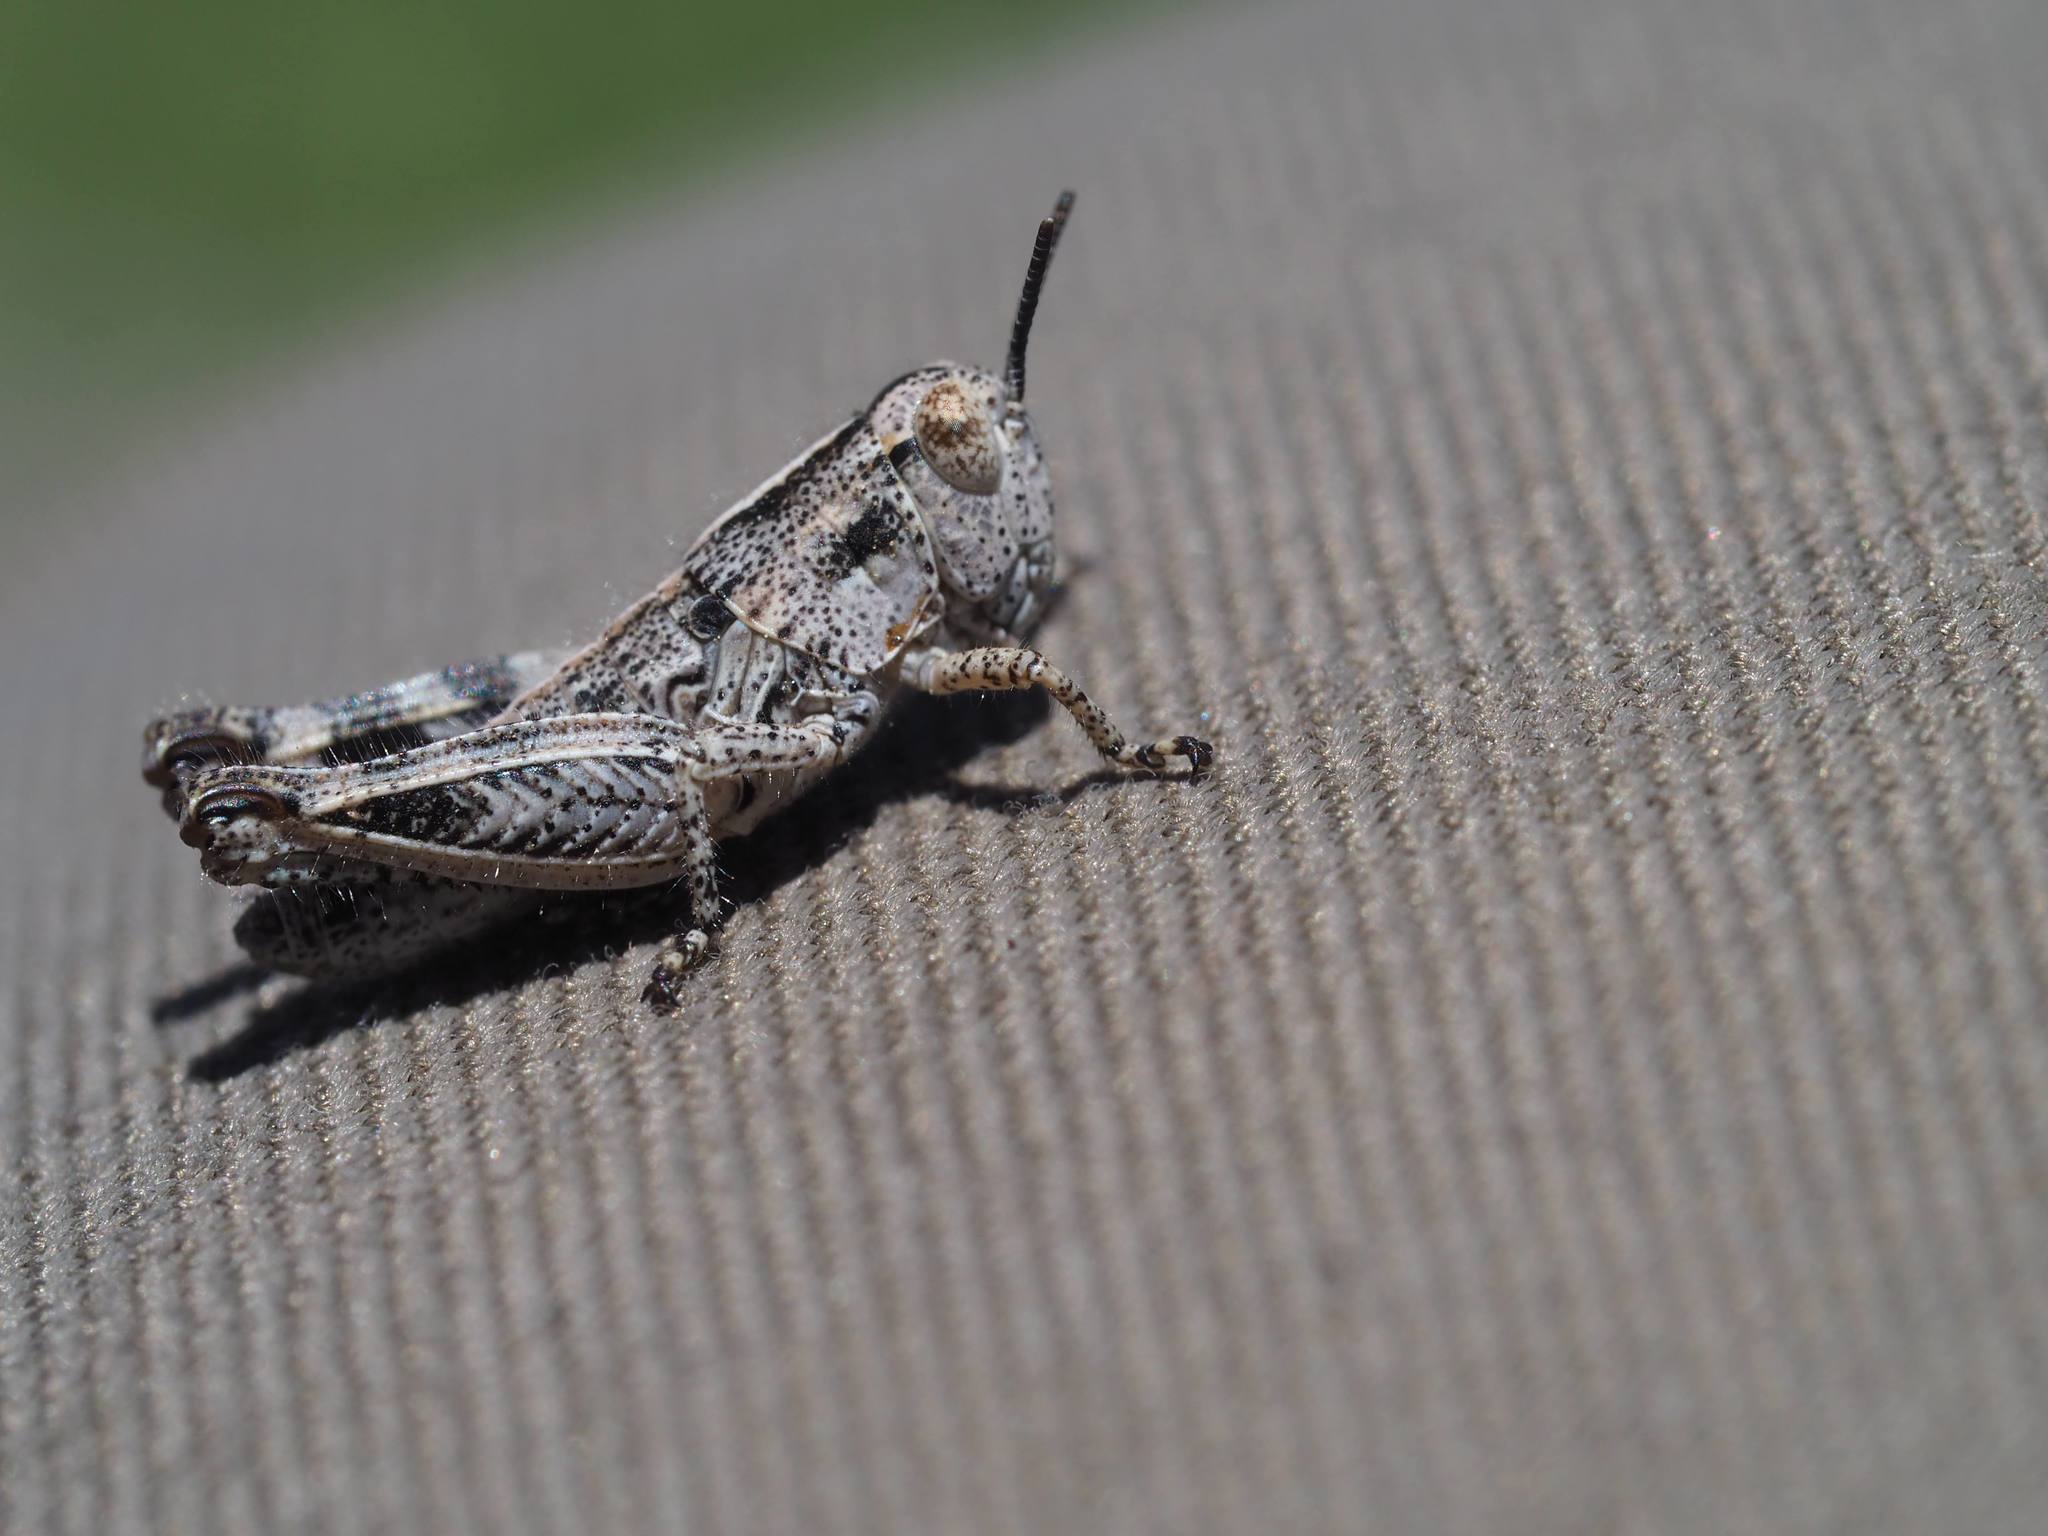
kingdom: Animalia
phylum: Arthropoda
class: Insecta
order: Orthoptera
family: Acrididae
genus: Oedaleonotus
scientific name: Oedaleonotus enigma
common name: Valley grasshopper
